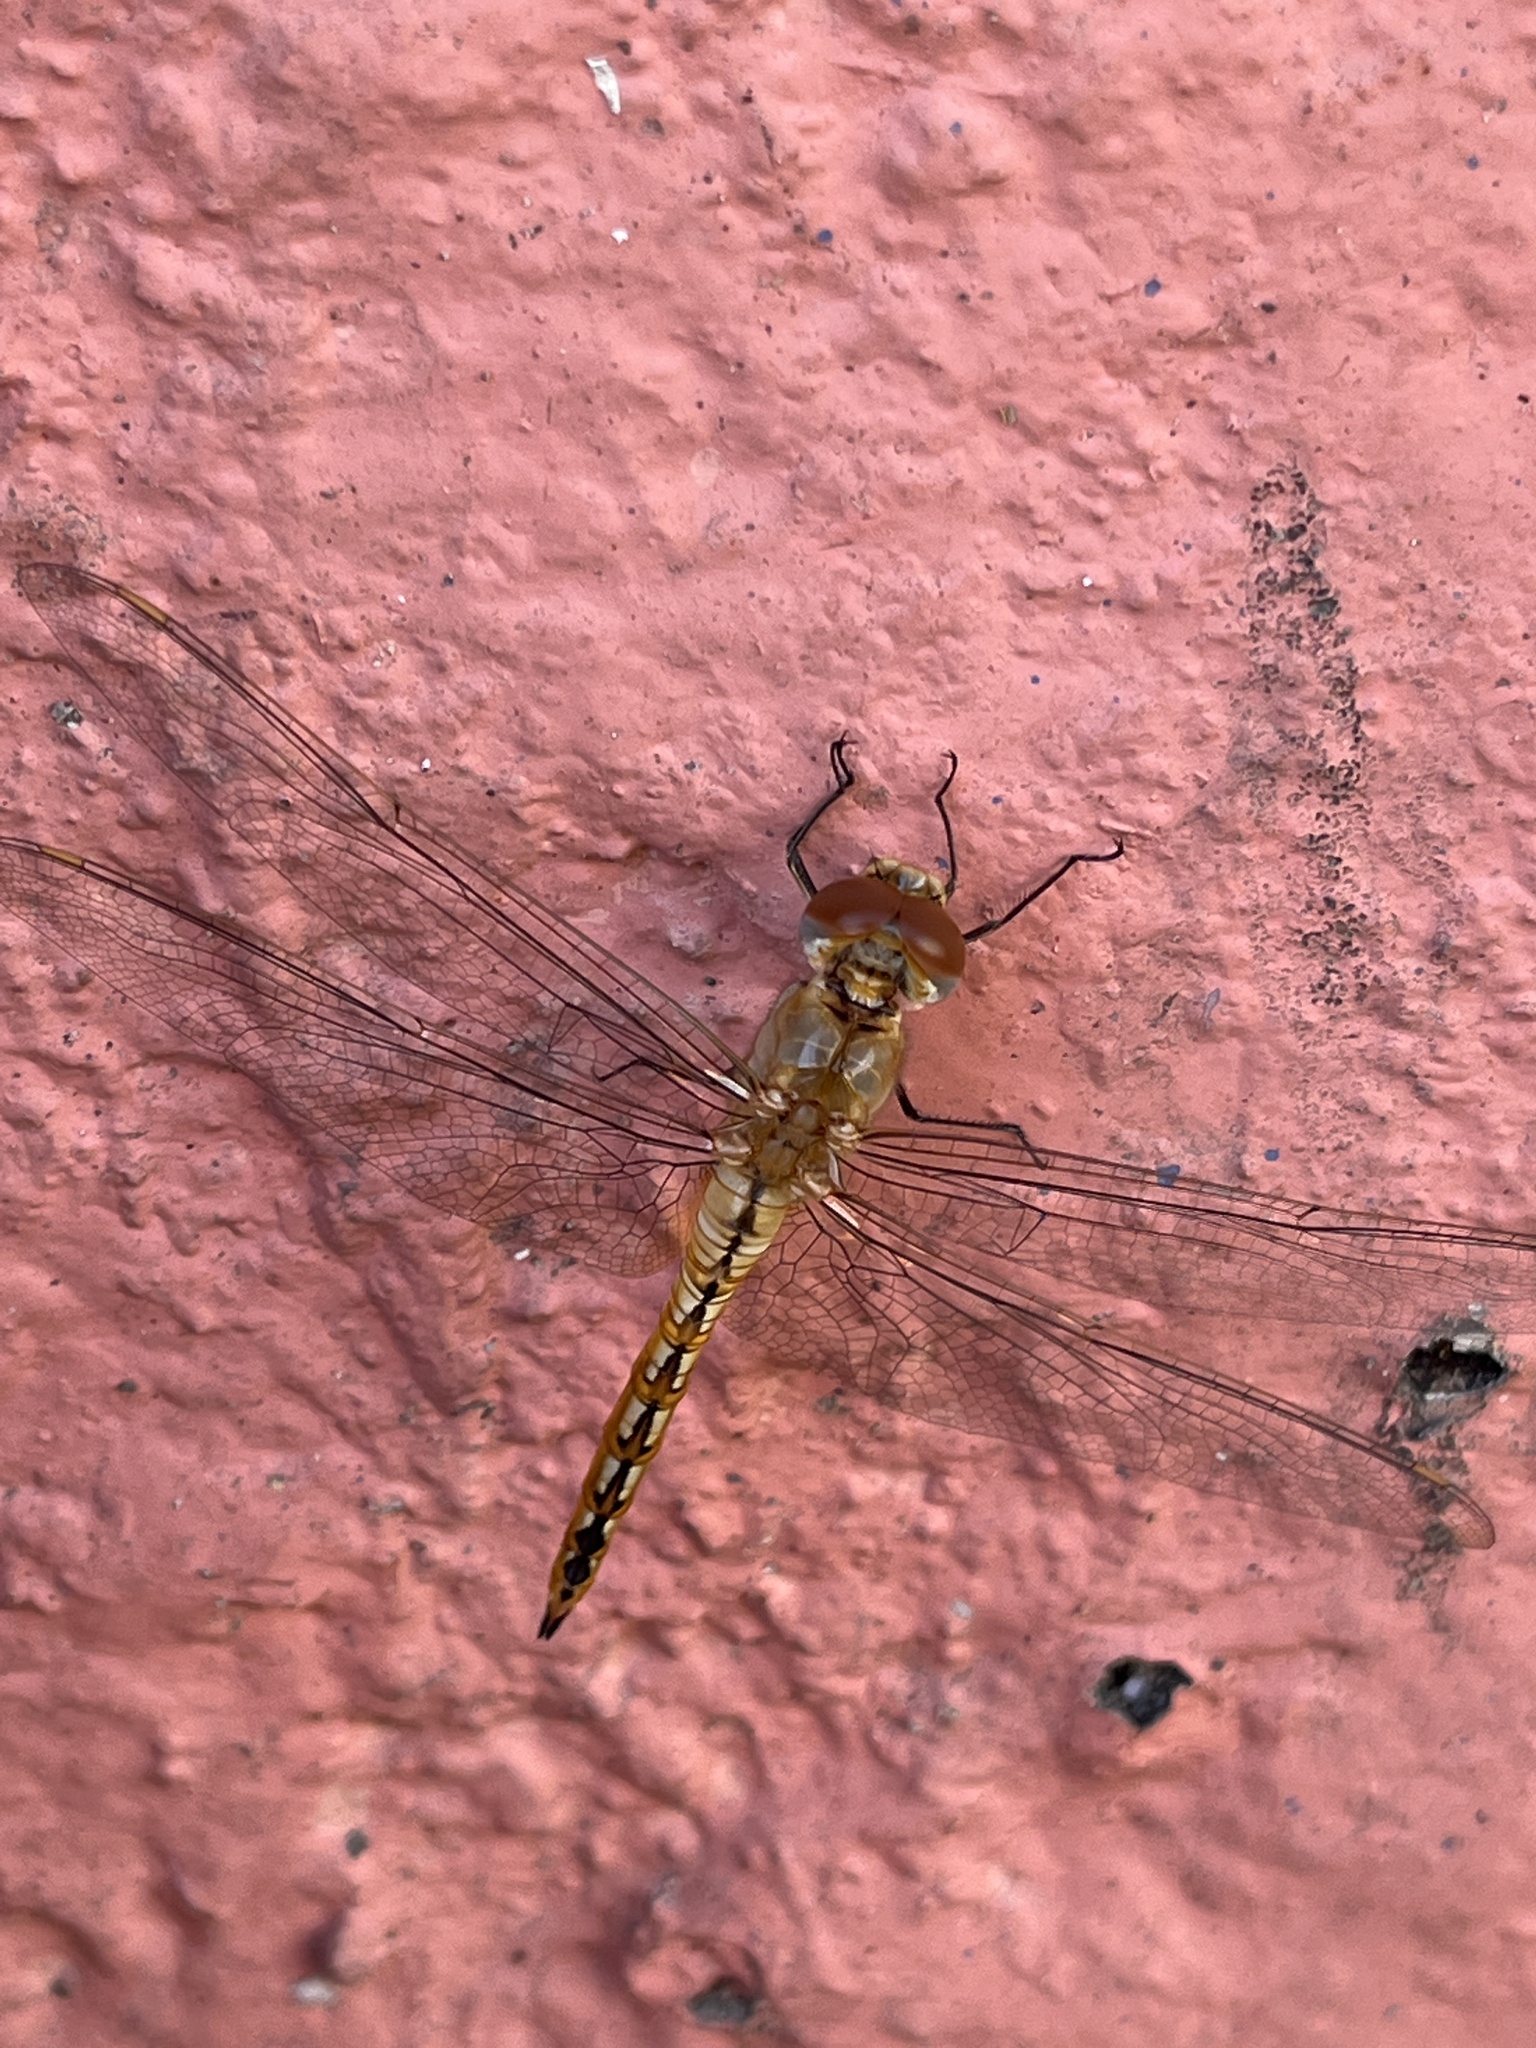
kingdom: Animalia
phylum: Arthropoda
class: Insecta
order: Odonata
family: Libellulidae
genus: Pantala
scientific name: Pantala flavescens
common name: Wandering glider
